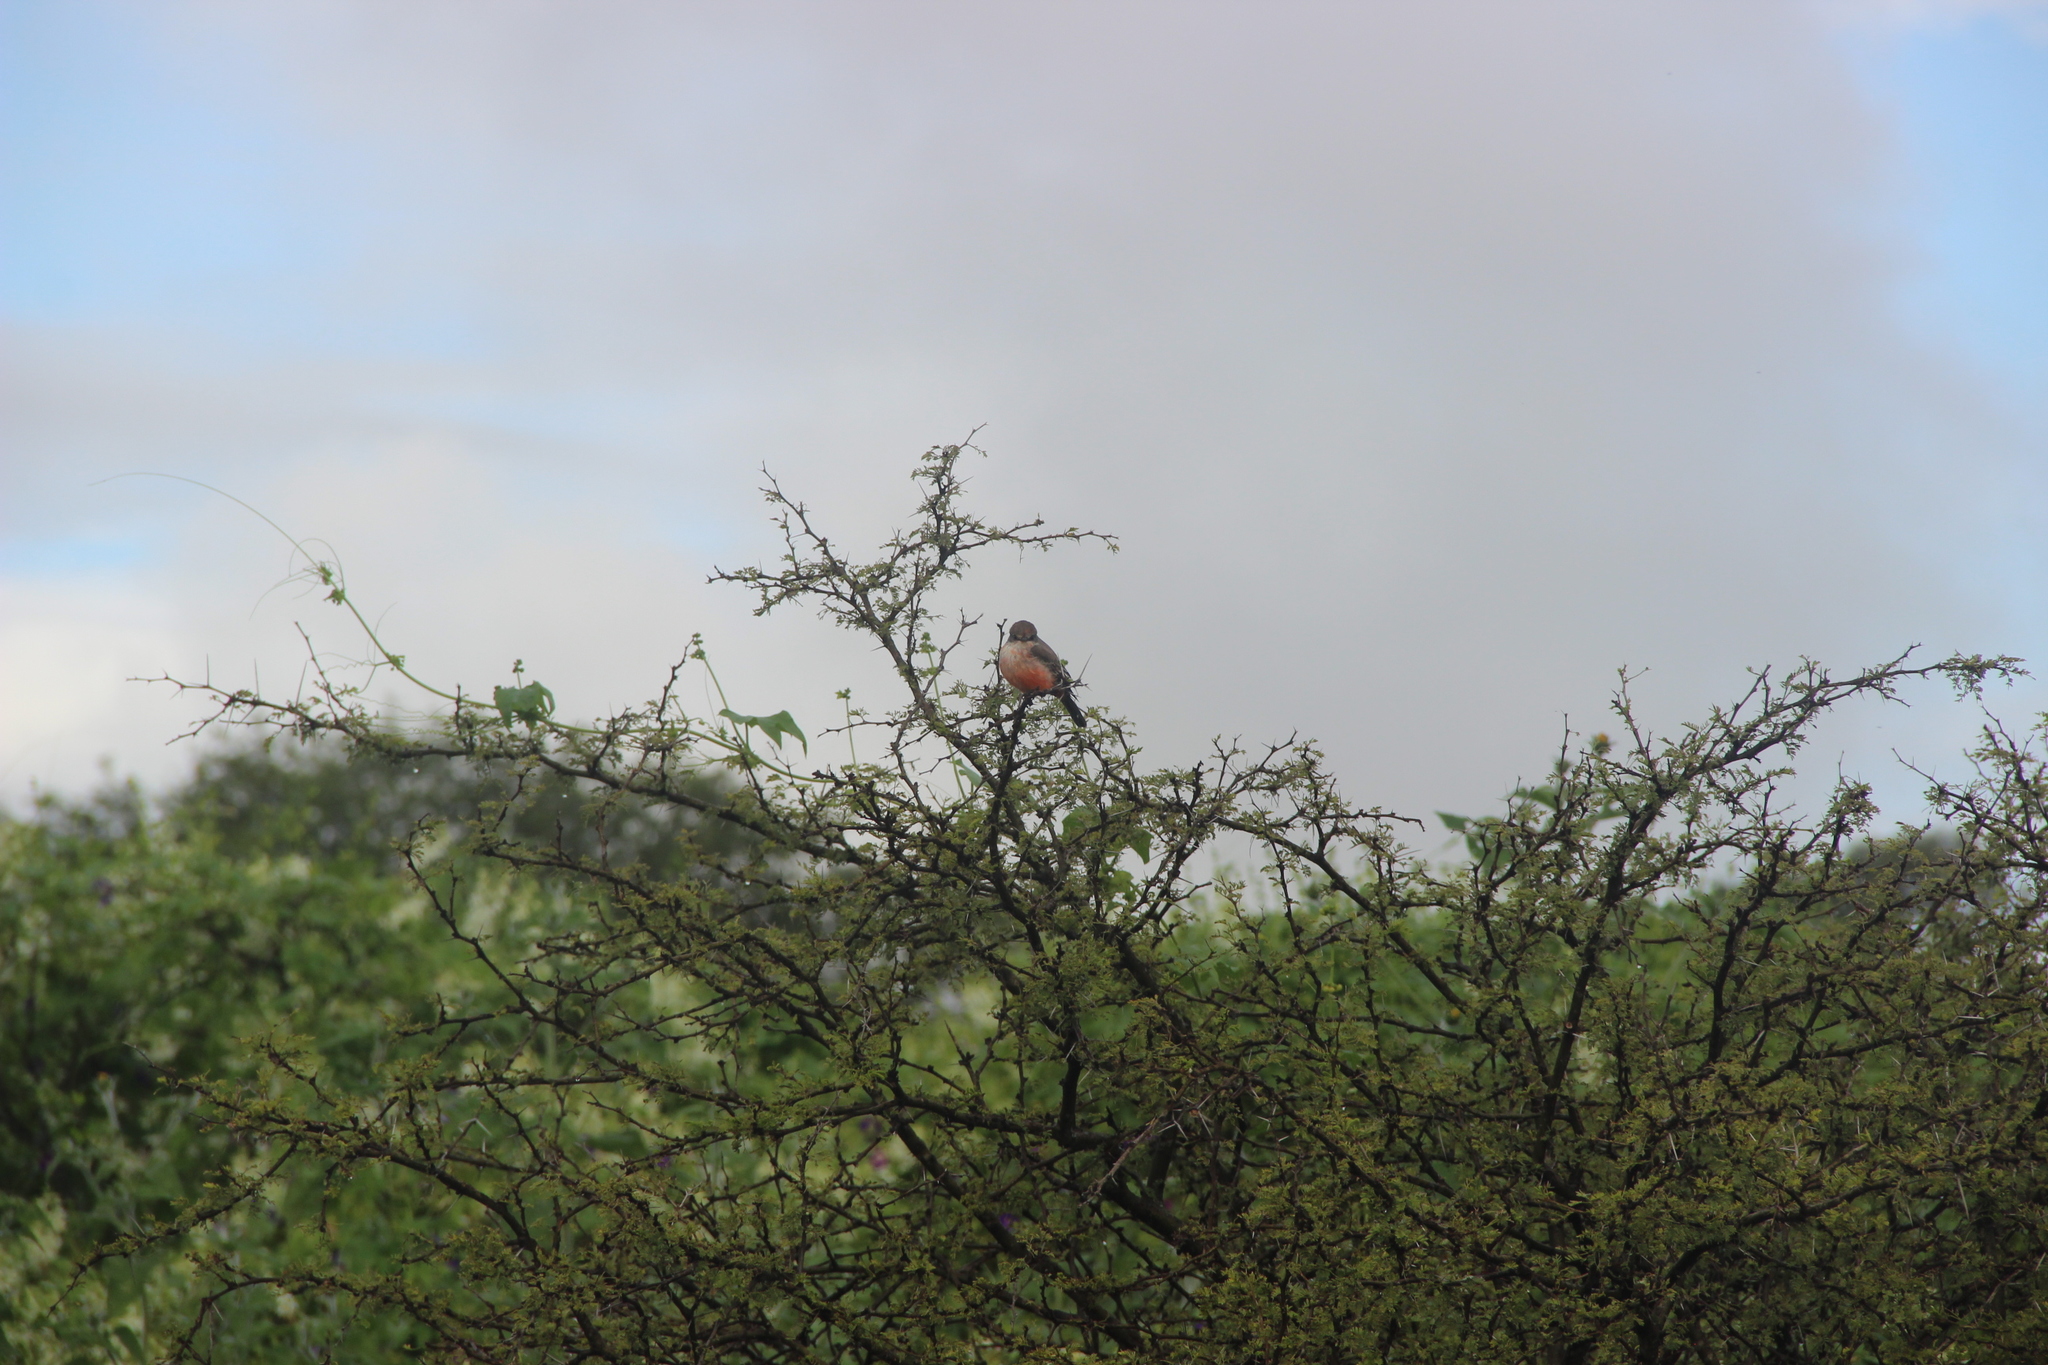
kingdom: Animalia
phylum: Chordata
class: Aves
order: Passeriformes
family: Tyrannidae
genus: Pyrocephalus
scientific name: Pyrocephalus rubinus
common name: Vermilion flycatcher
